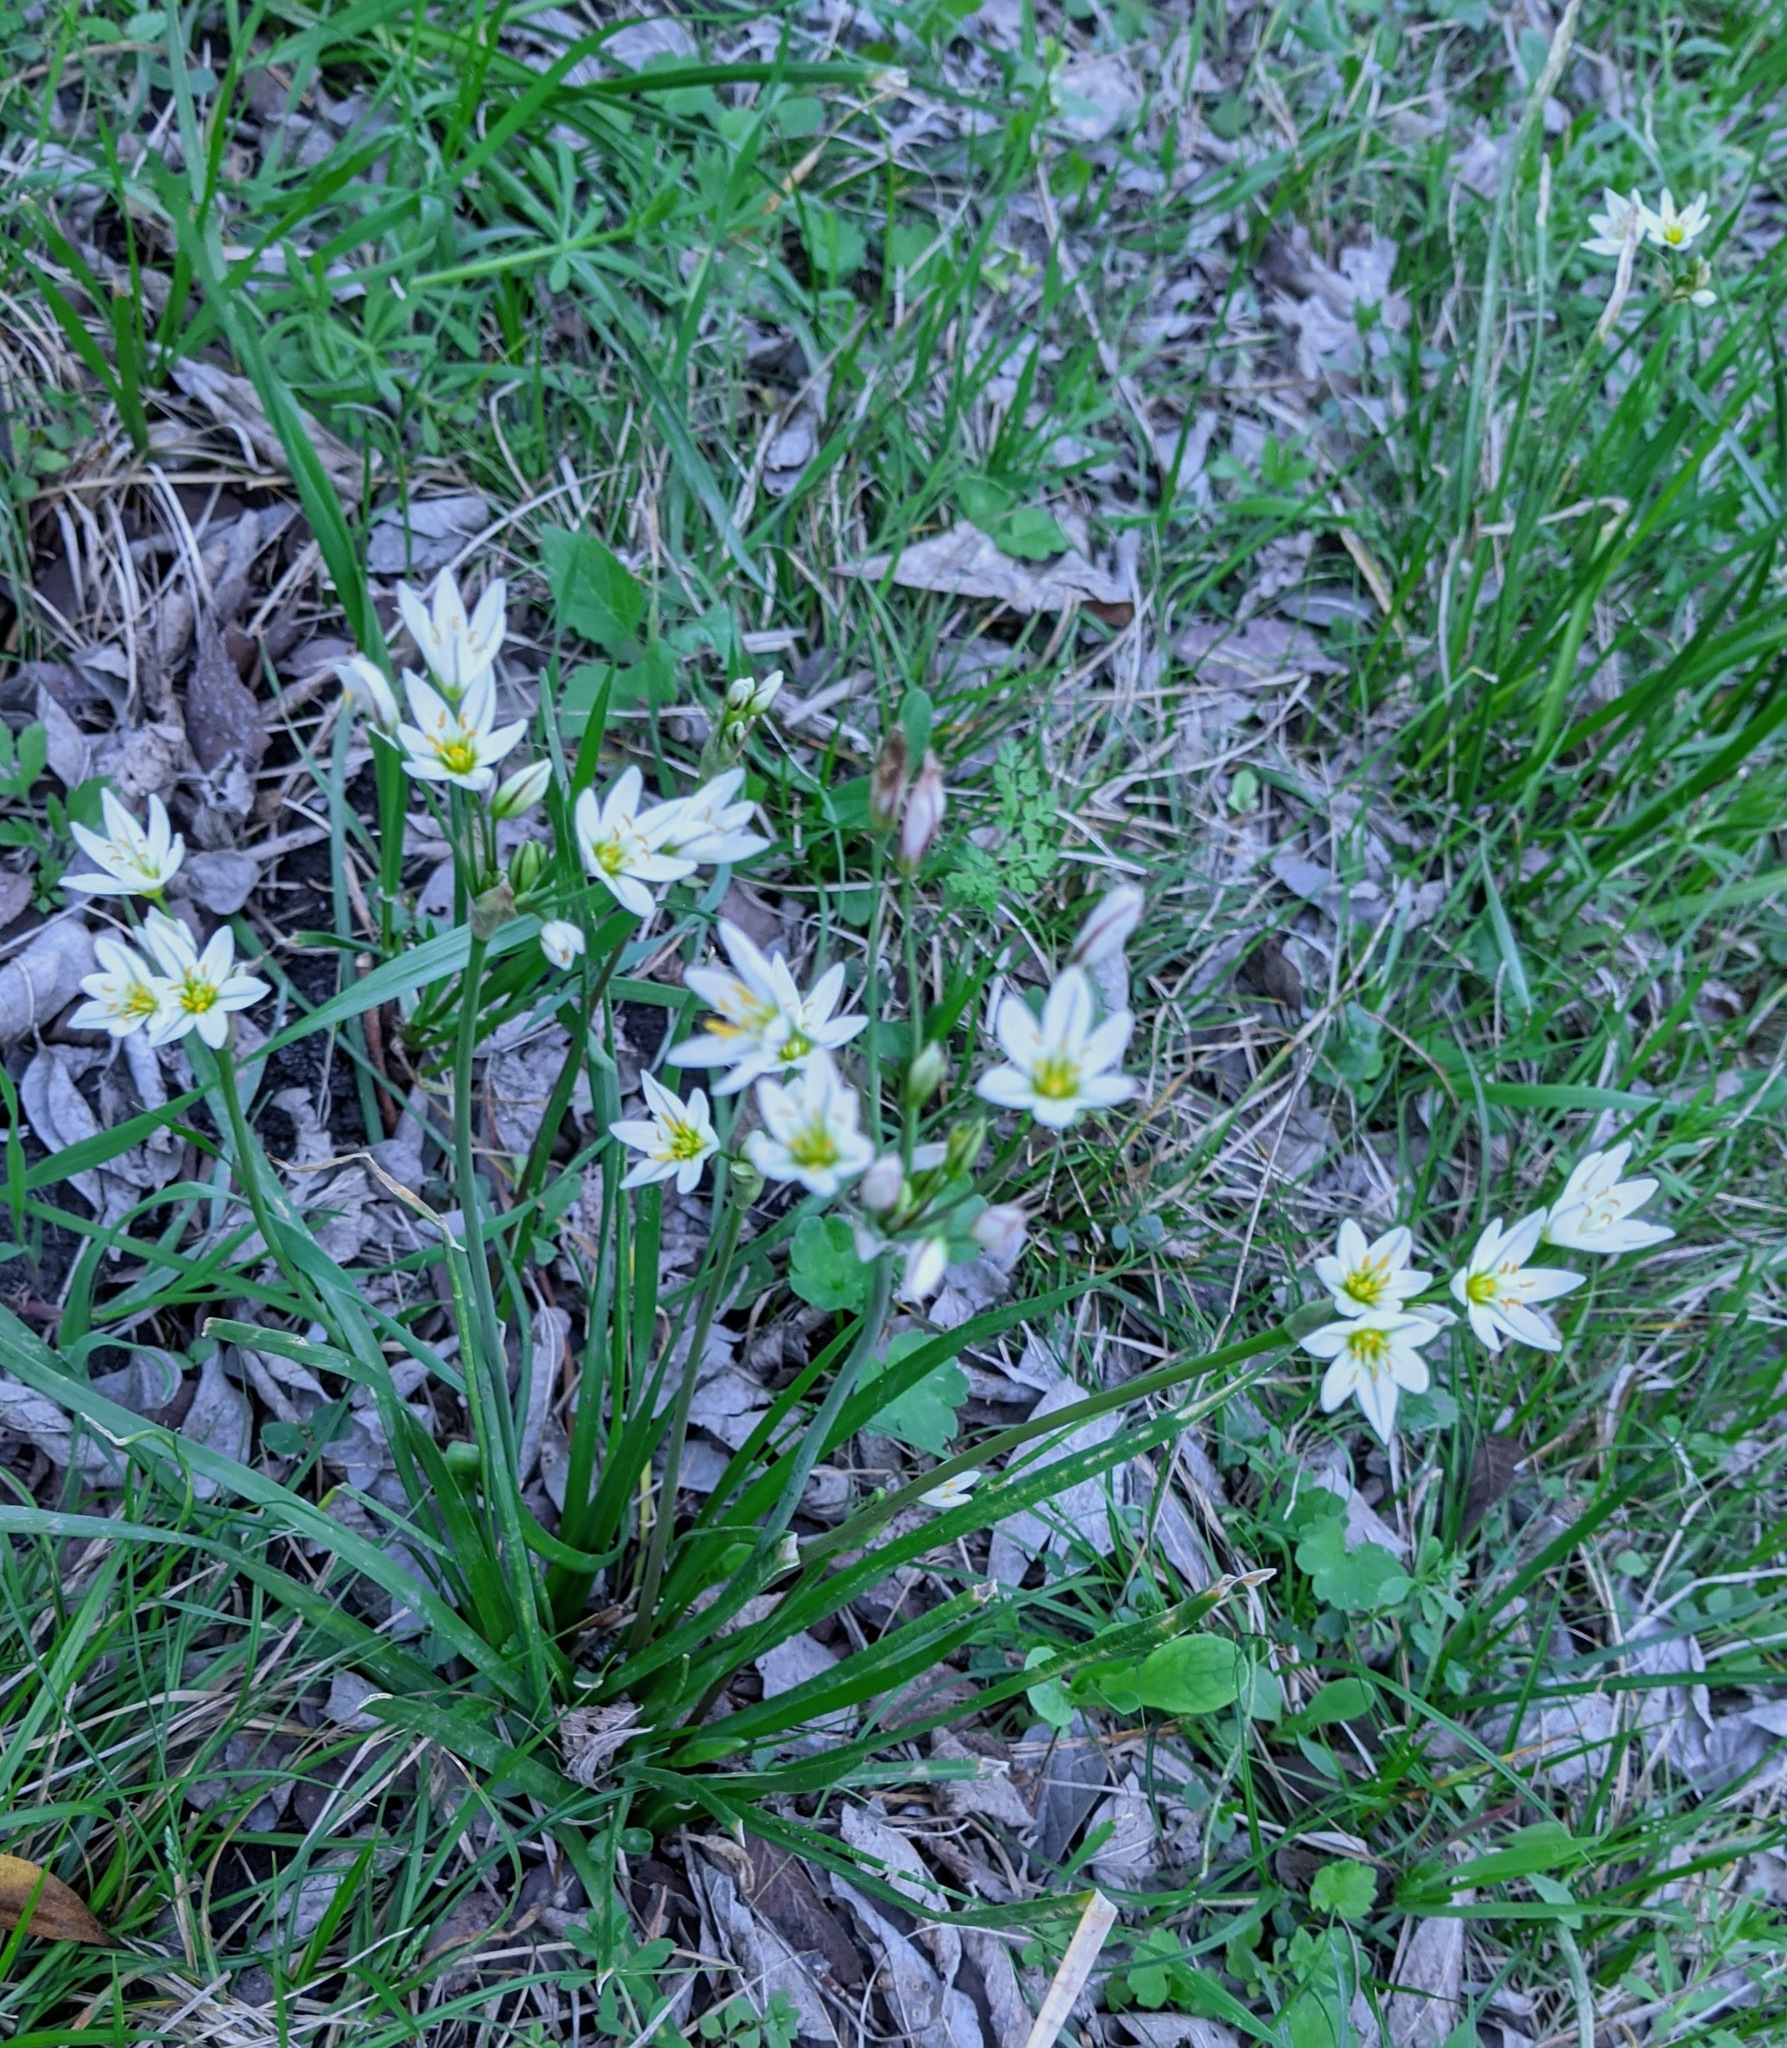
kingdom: Plantae
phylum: Tracheophyta
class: Liliopsida
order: Asparagales
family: Amaryllidaceae
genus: Nothoscordum
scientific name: Nothoscordum bivalve
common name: Crow-poison
